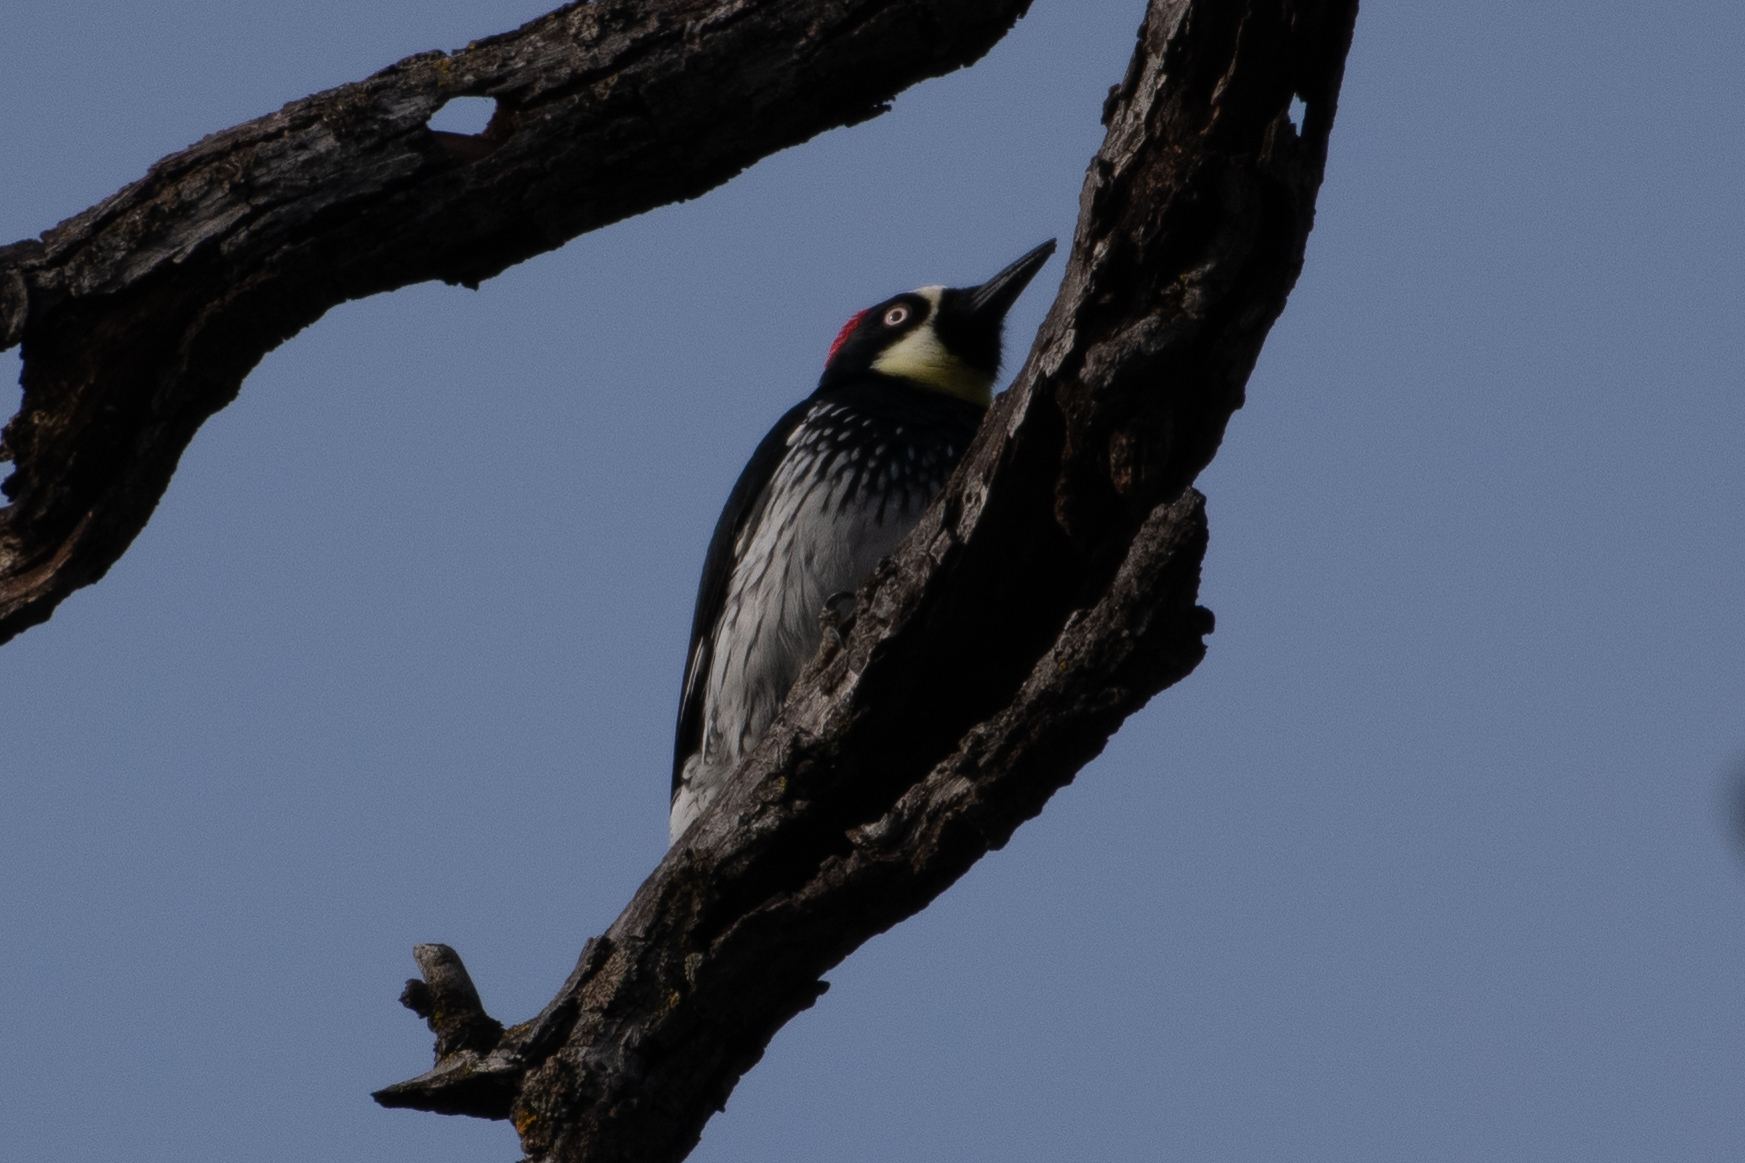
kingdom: Animalia
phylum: Chordata
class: Aves
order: Piciformes
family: Picidae
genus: Melanerpes
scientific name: Melanerpes formicivorus
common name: Acorn woodpecker
